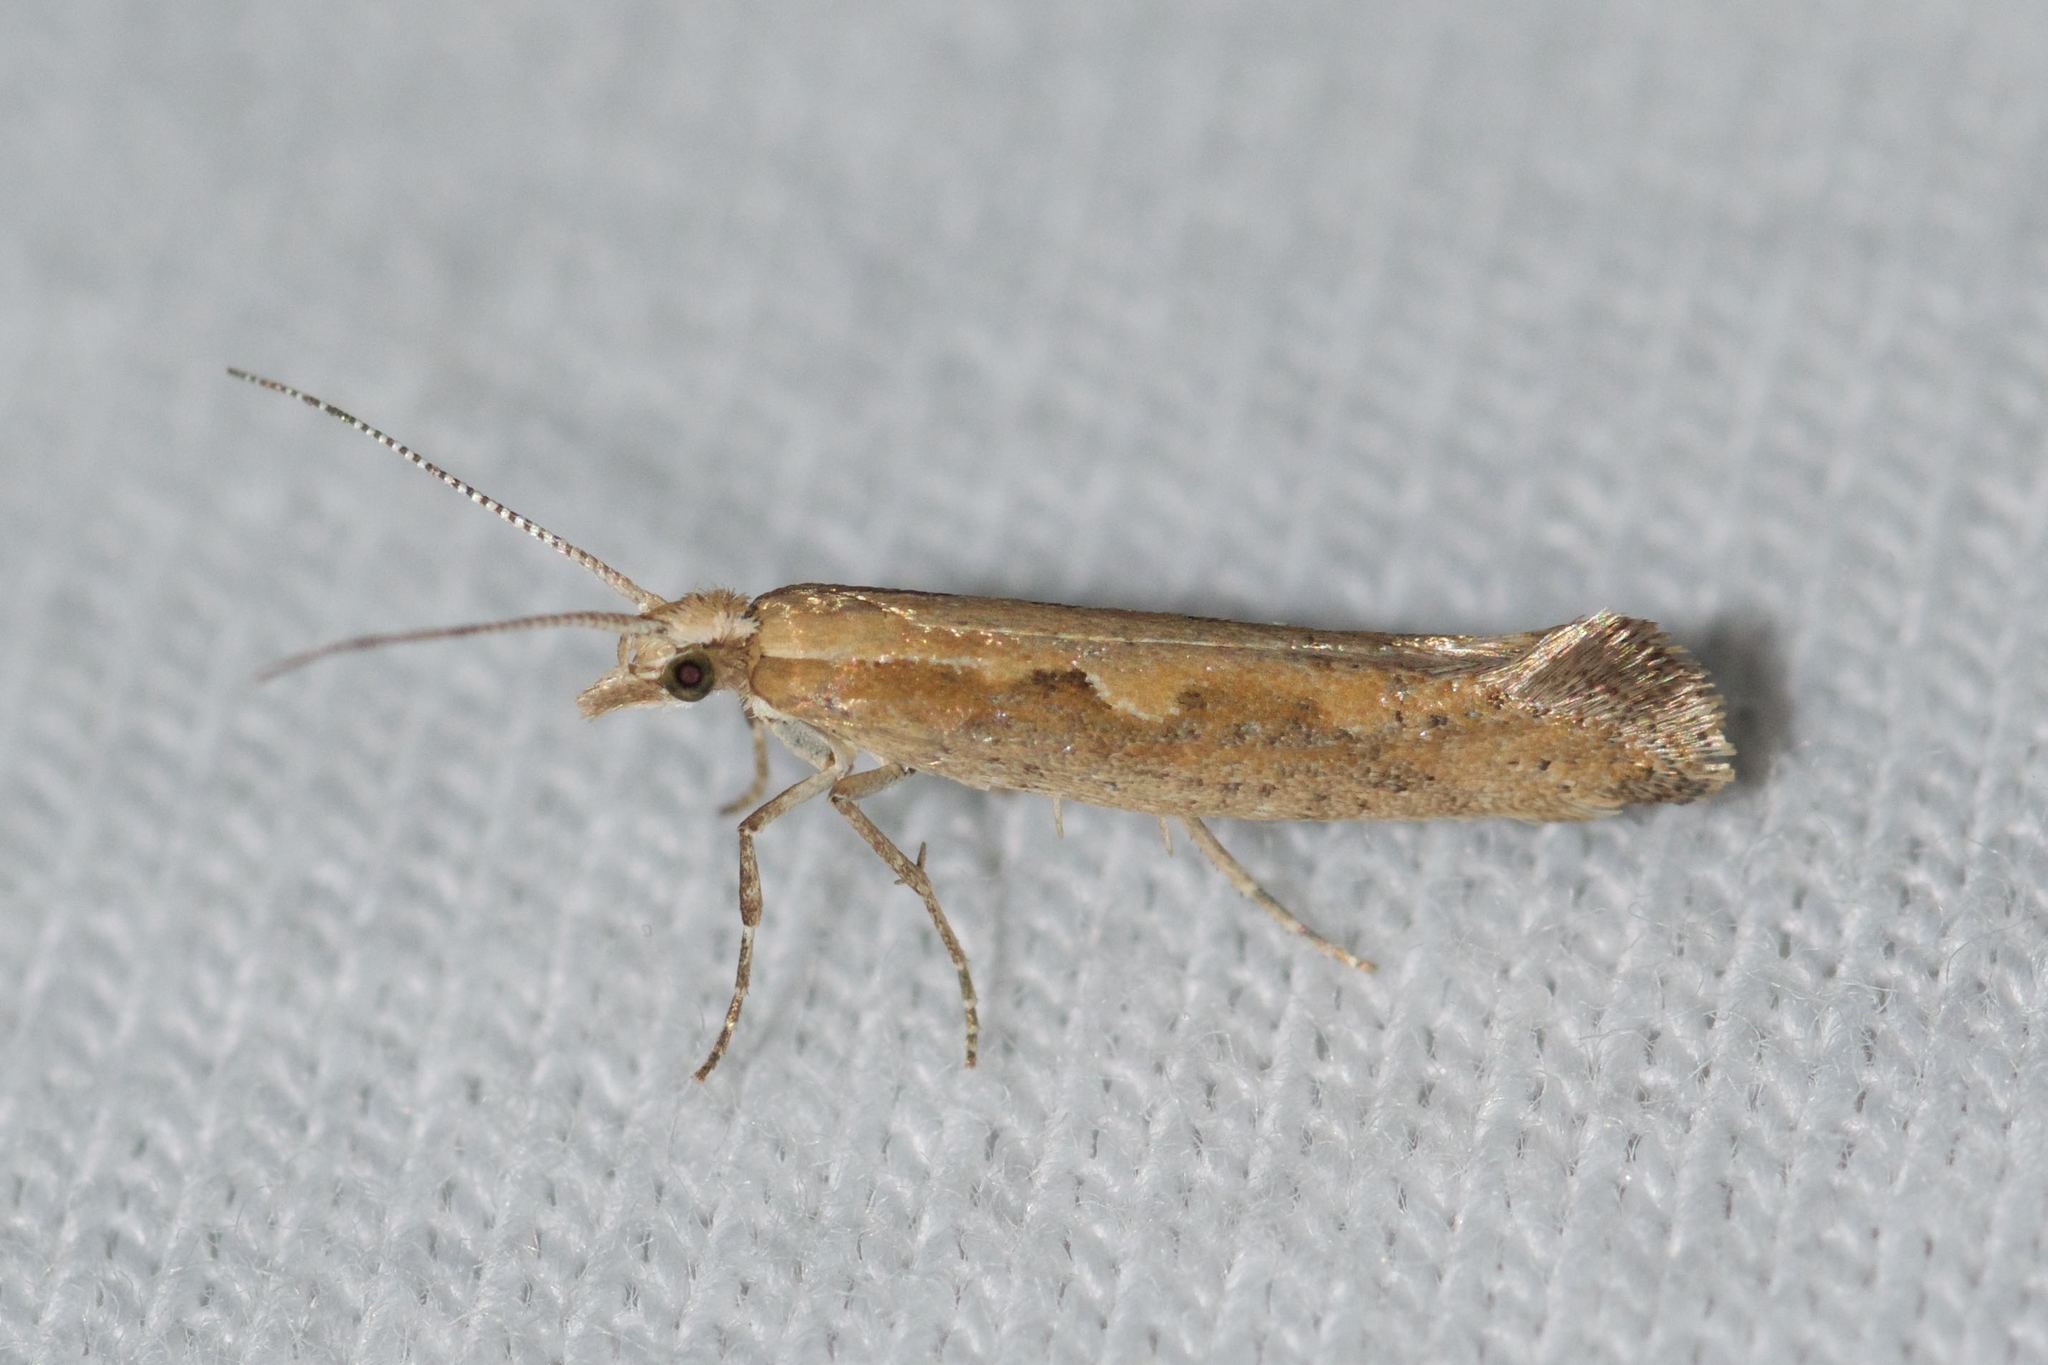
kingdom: Animalia
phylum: Arthropoda
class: Insecta
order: Lepidoptera
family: Plutellidae
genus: Plutella
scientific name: Plutella xylostella
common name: Diamond-back moth
